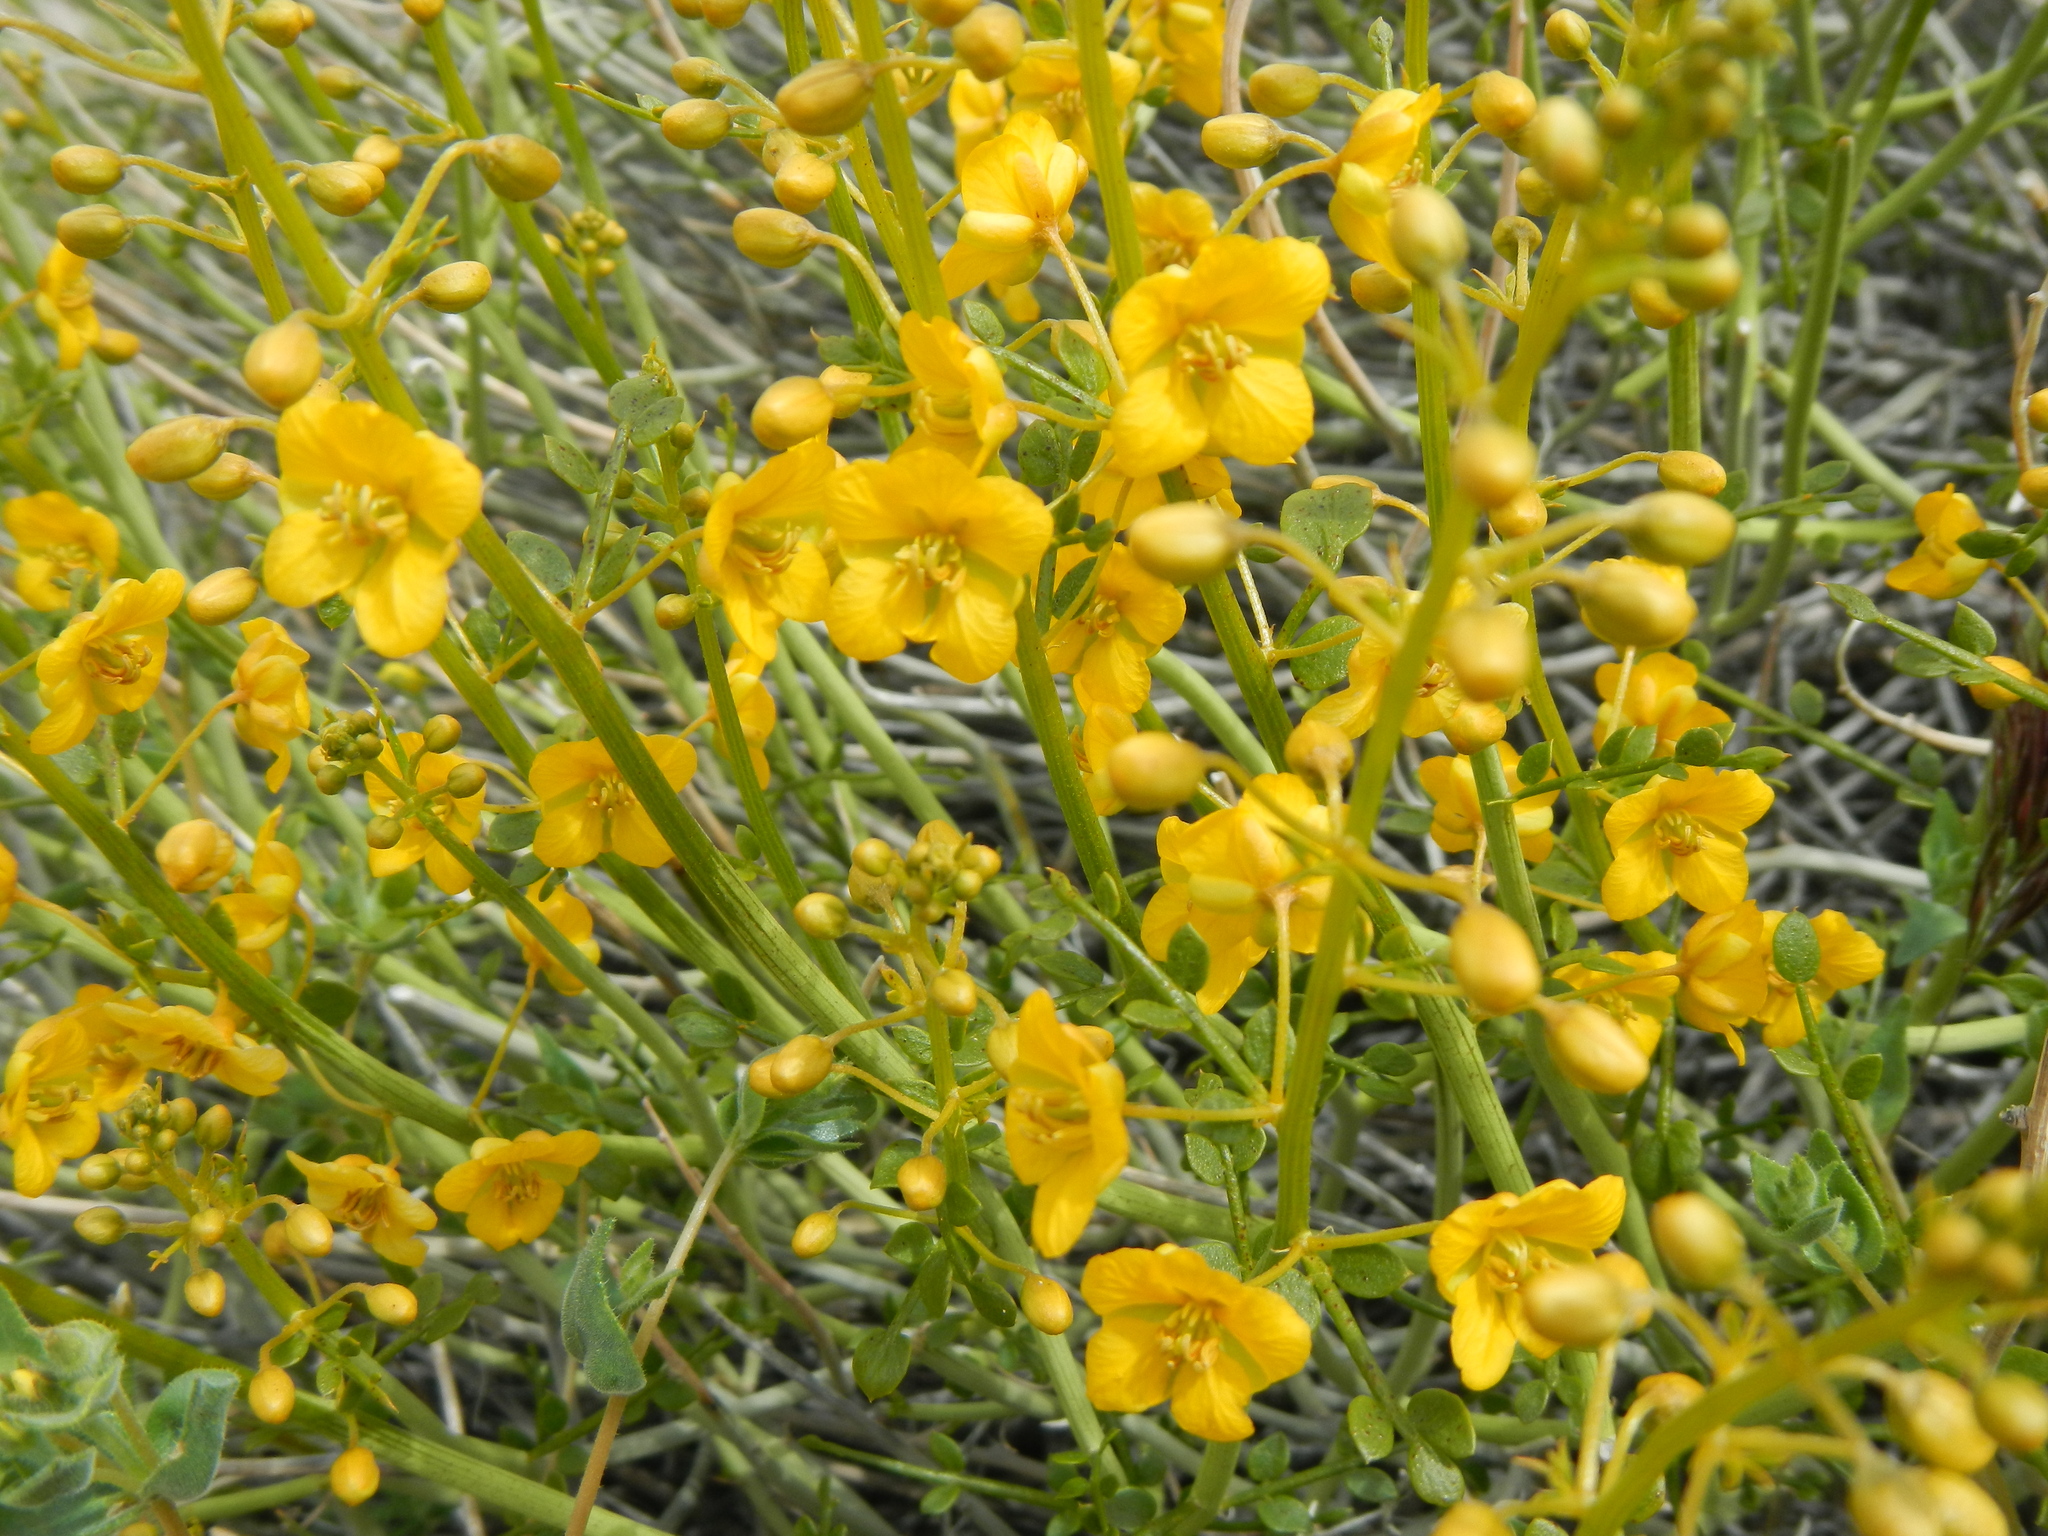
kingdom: Plantae
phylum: Tracheophyta
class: Magnoliopsida
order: Fabales
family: Fabaceae
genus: Senna
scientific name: Senna armata
